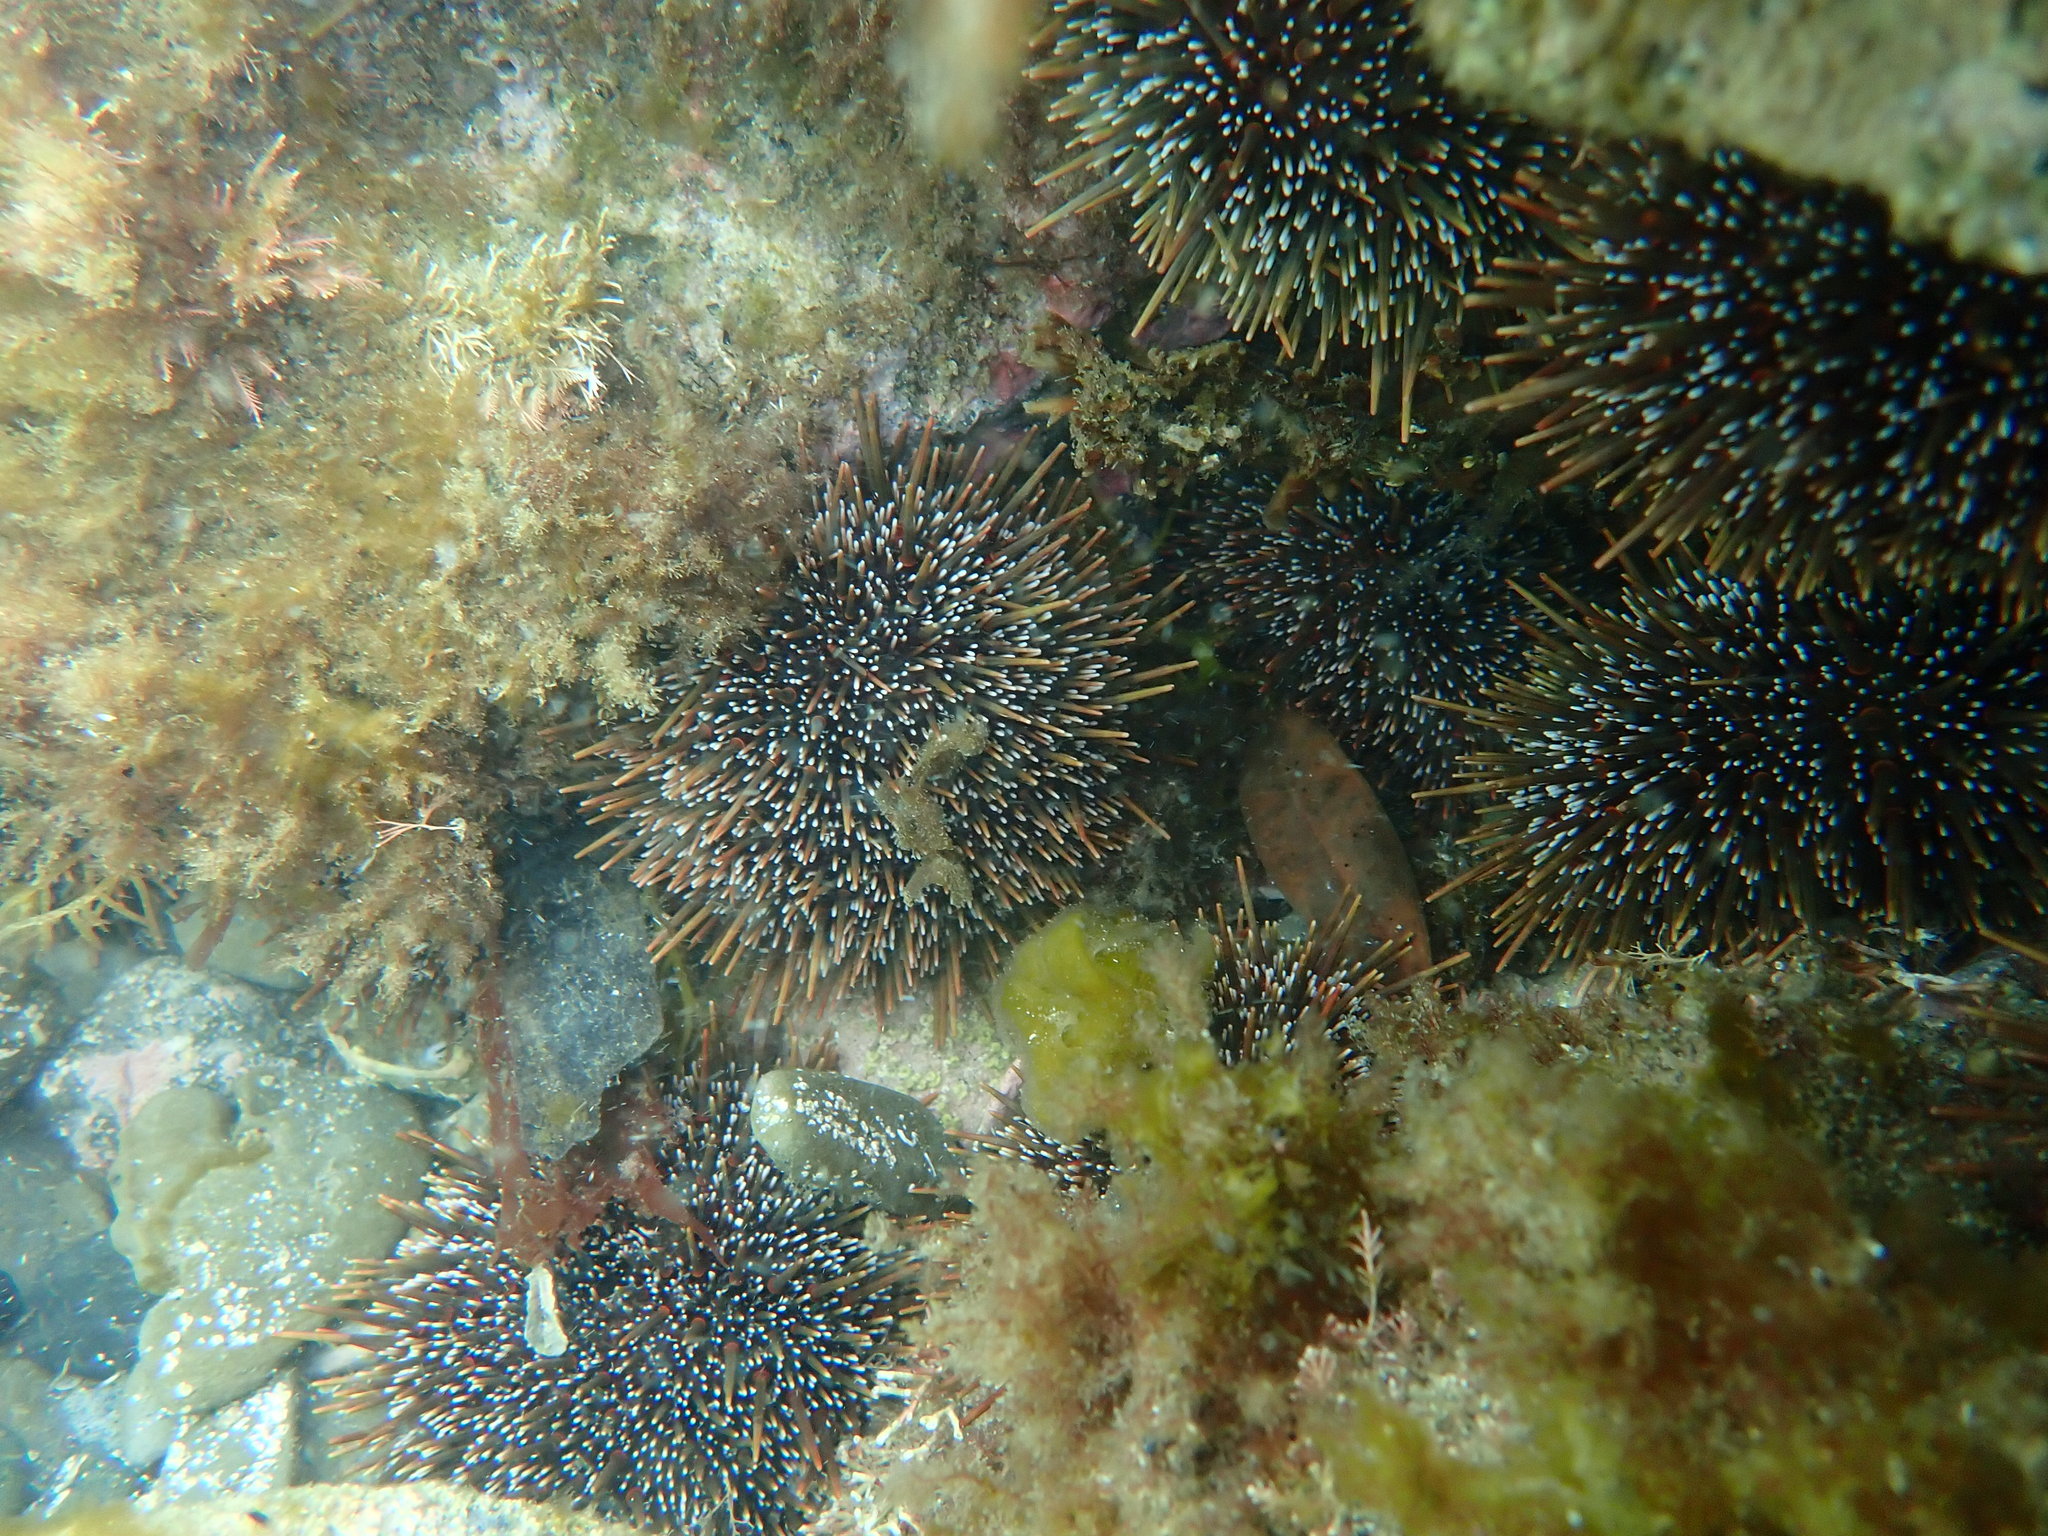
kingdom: Animalia
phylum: Echinodermata
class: Echinoidea
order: Camarodonta
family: Echinometridae
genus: Evechinus
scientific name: Evechinus chloroticus
